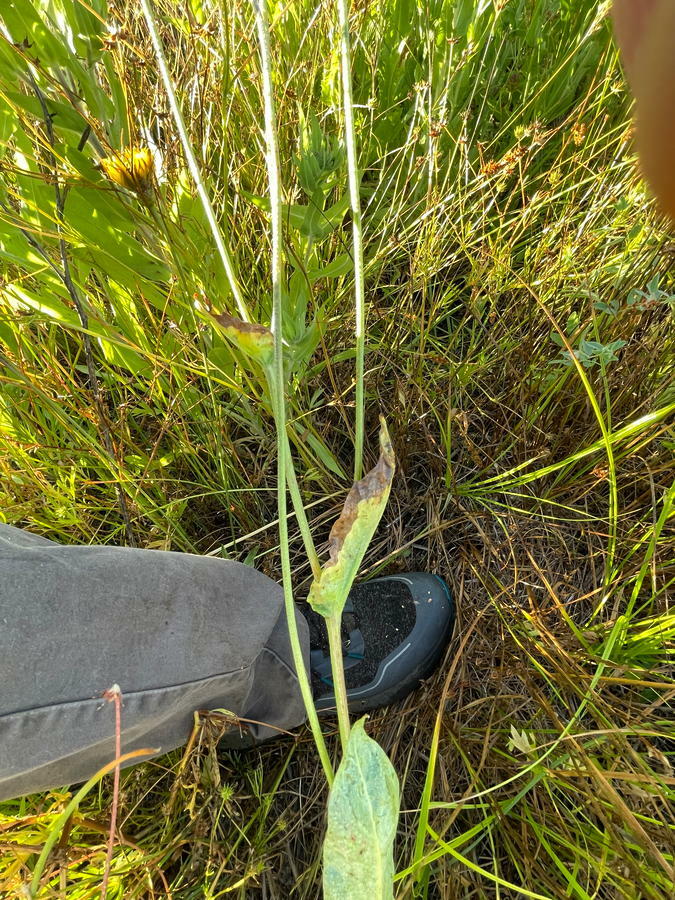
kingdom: Plantae
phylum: Tracheophyta
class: Magnoliopsida
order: Asterales
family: Asteraceae
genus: Microseris
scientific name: Microseris laciniata
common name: Cut-leaf microseris
